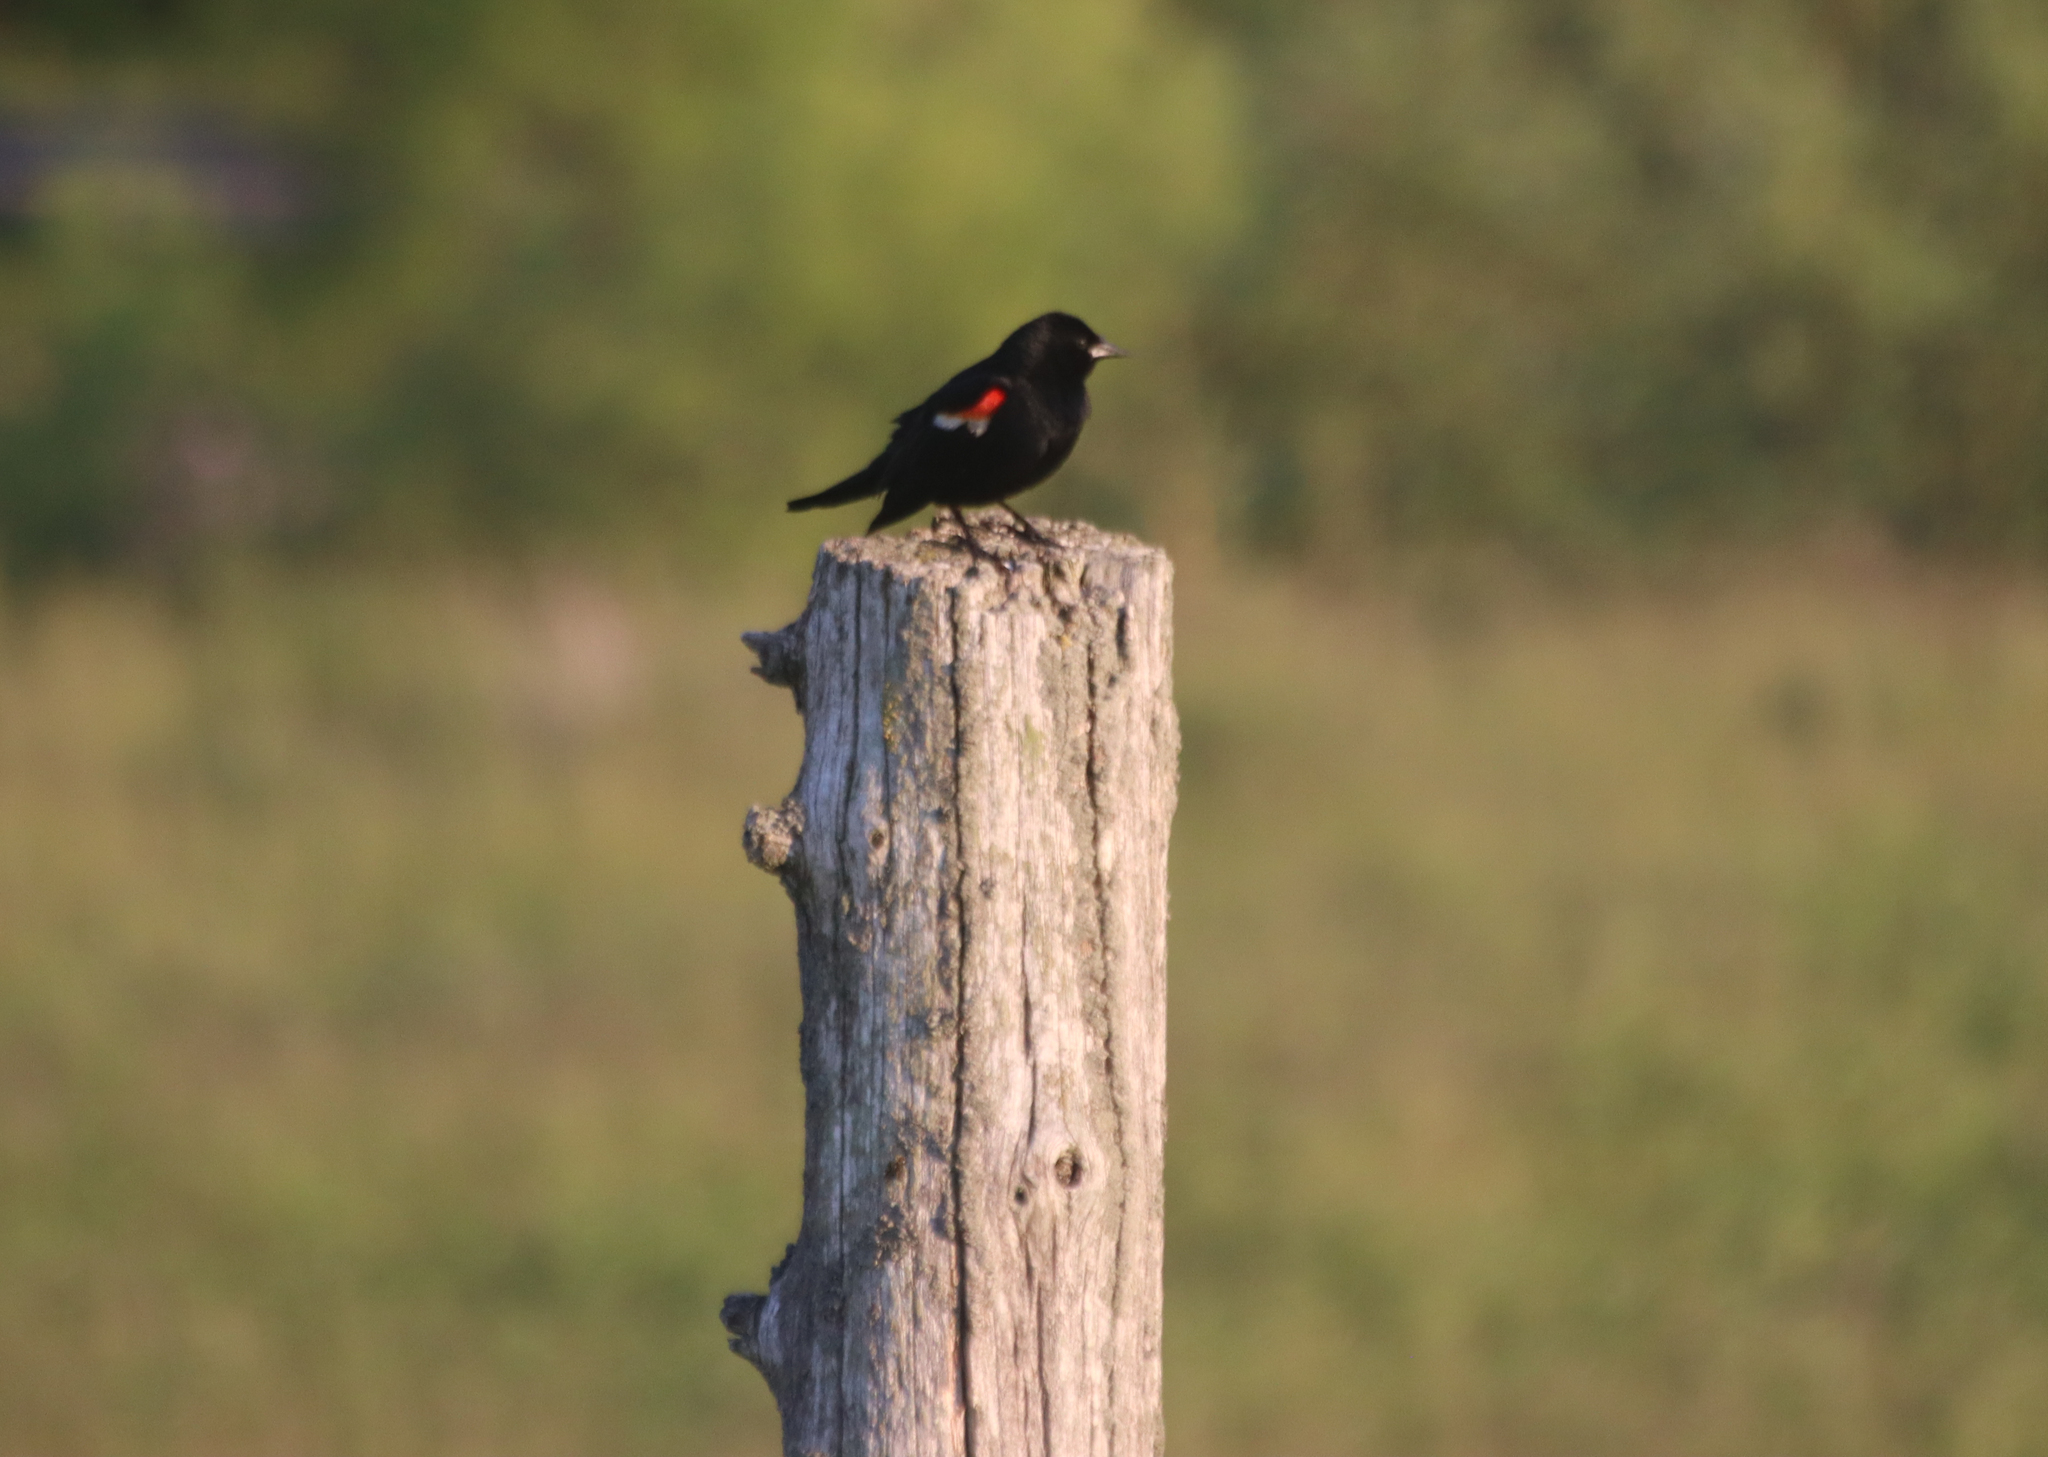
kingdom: Animalia
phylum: Chordata
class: Aves
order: Passeriformes
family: Icteridae
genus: Agelaius
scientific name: Agelaius phoeniceus
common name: Red-winged blackbird
